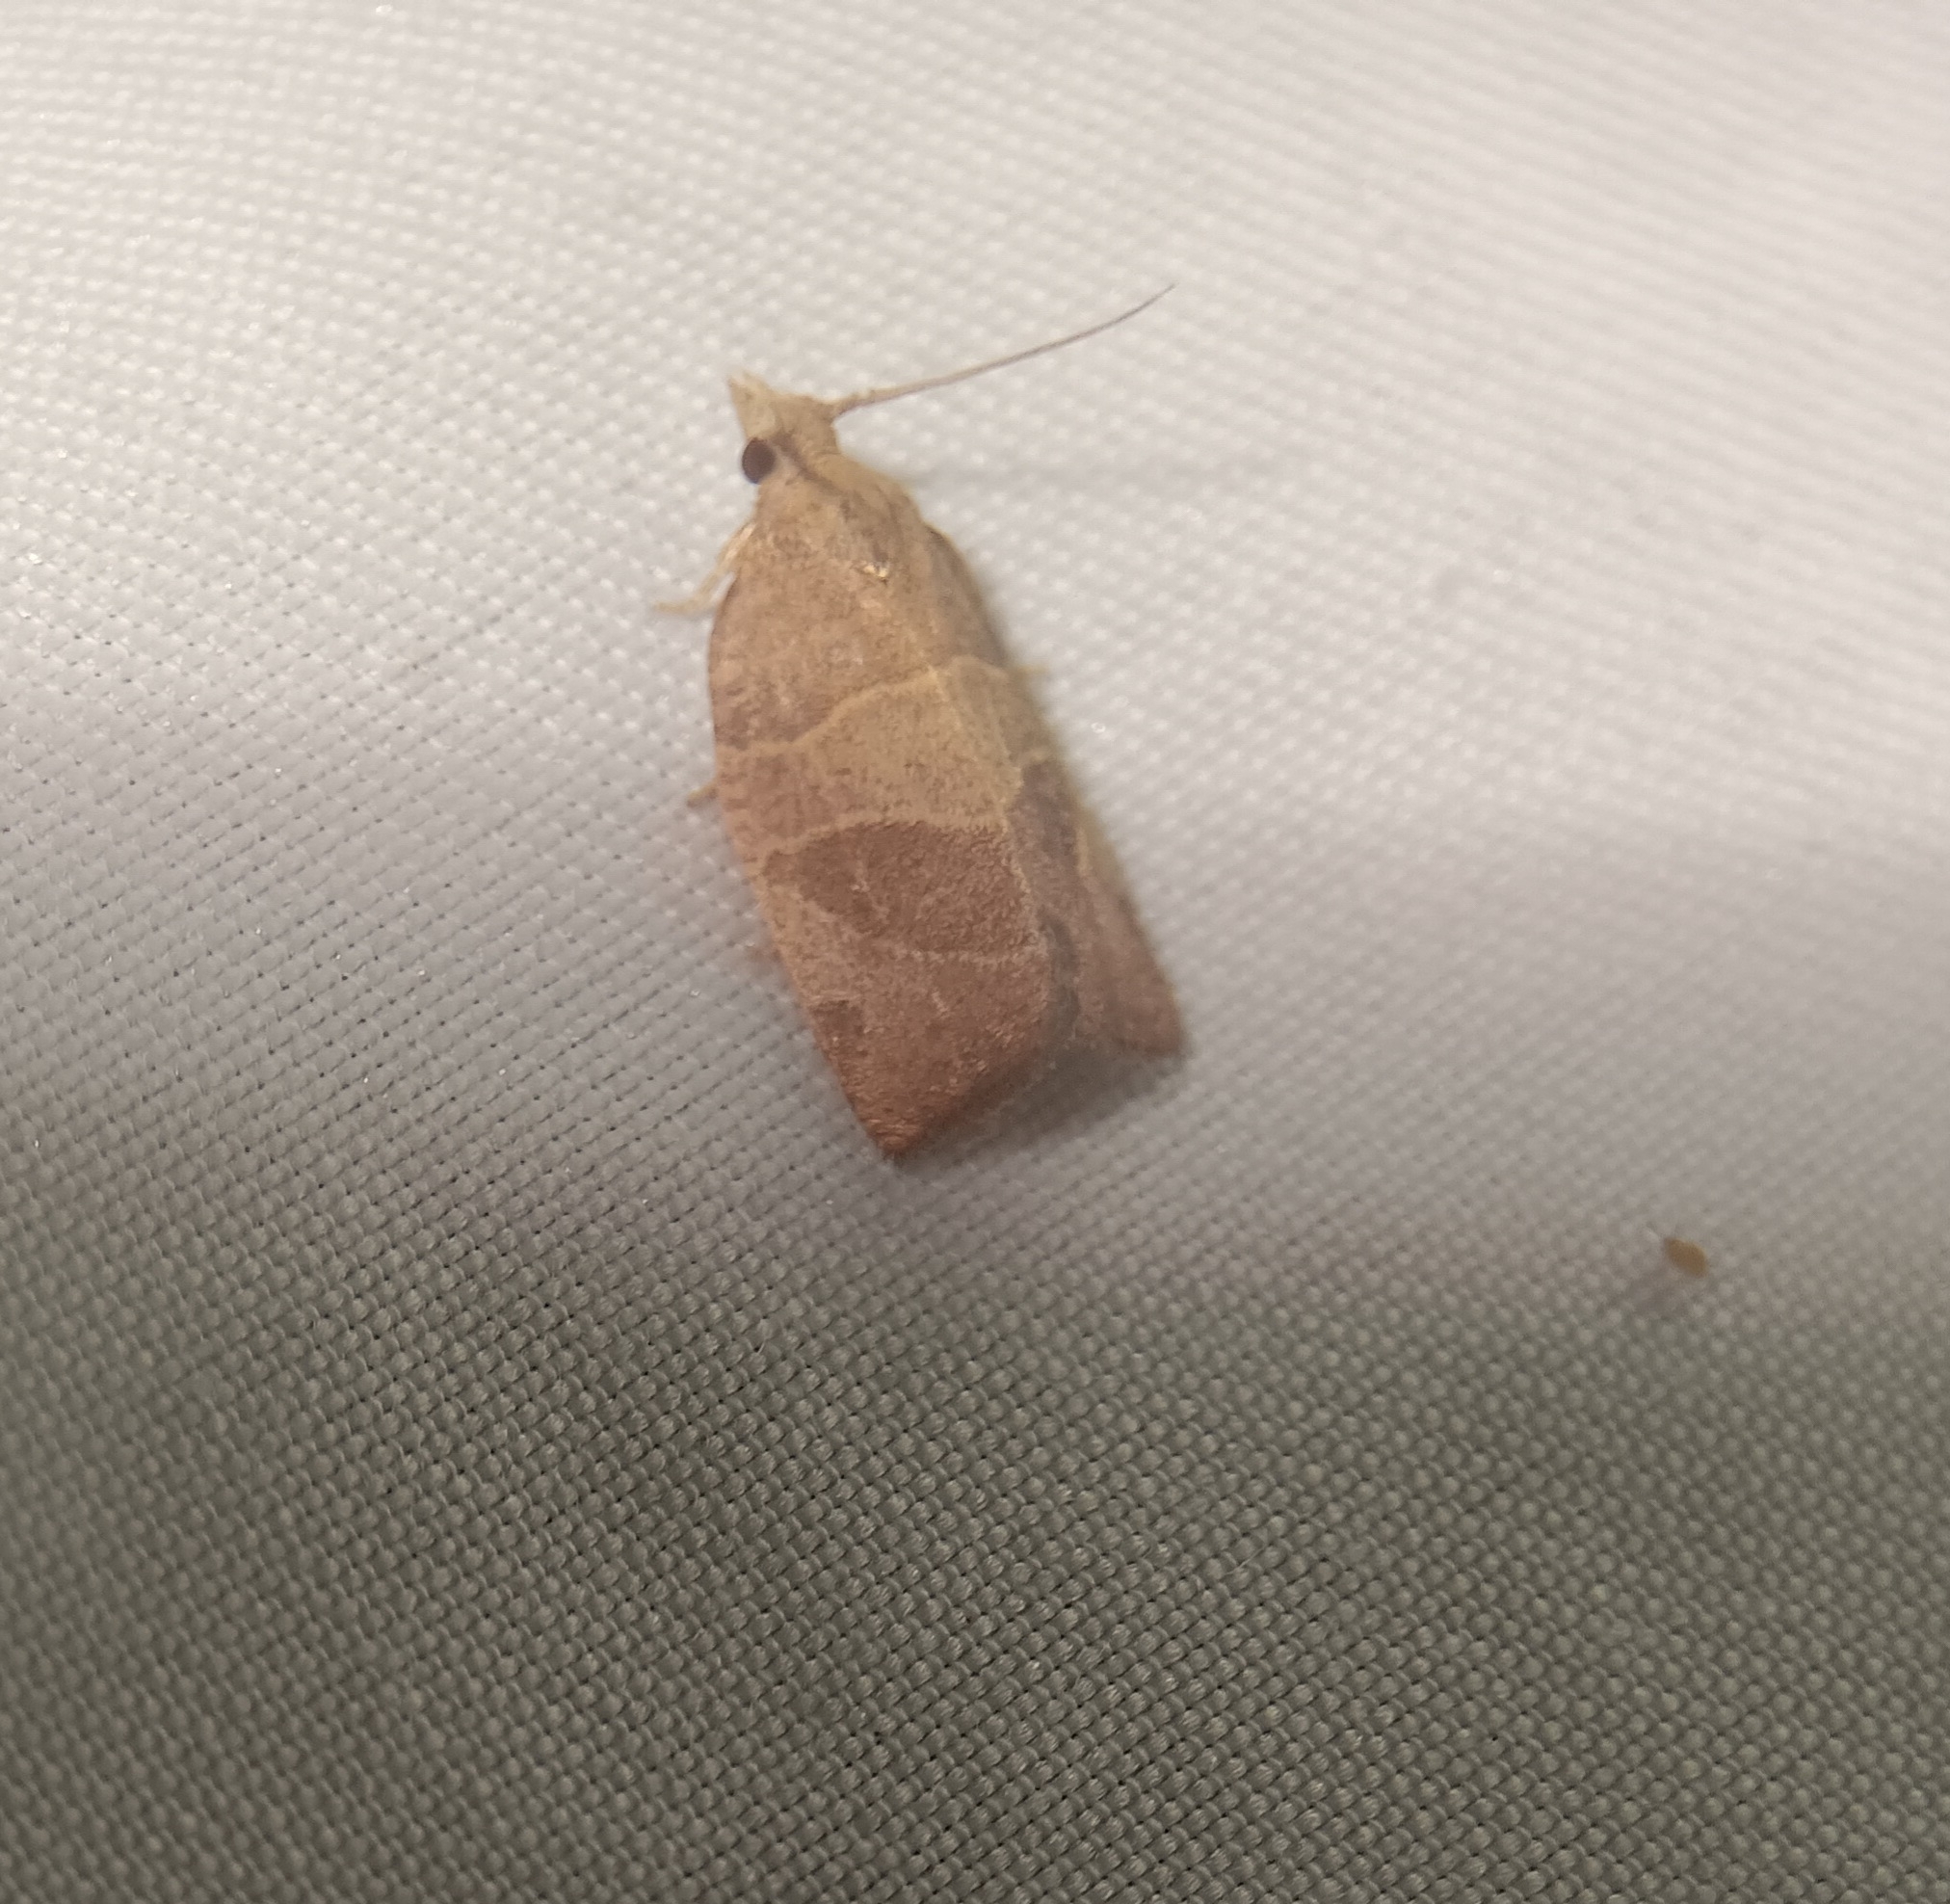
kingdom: Animalia
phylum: Arthropoda
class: Insecta
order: Lepidoptera
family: Tortricidae
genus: Pandemis
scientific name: Pandemis limitata
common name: Three-lined leafroller moth
